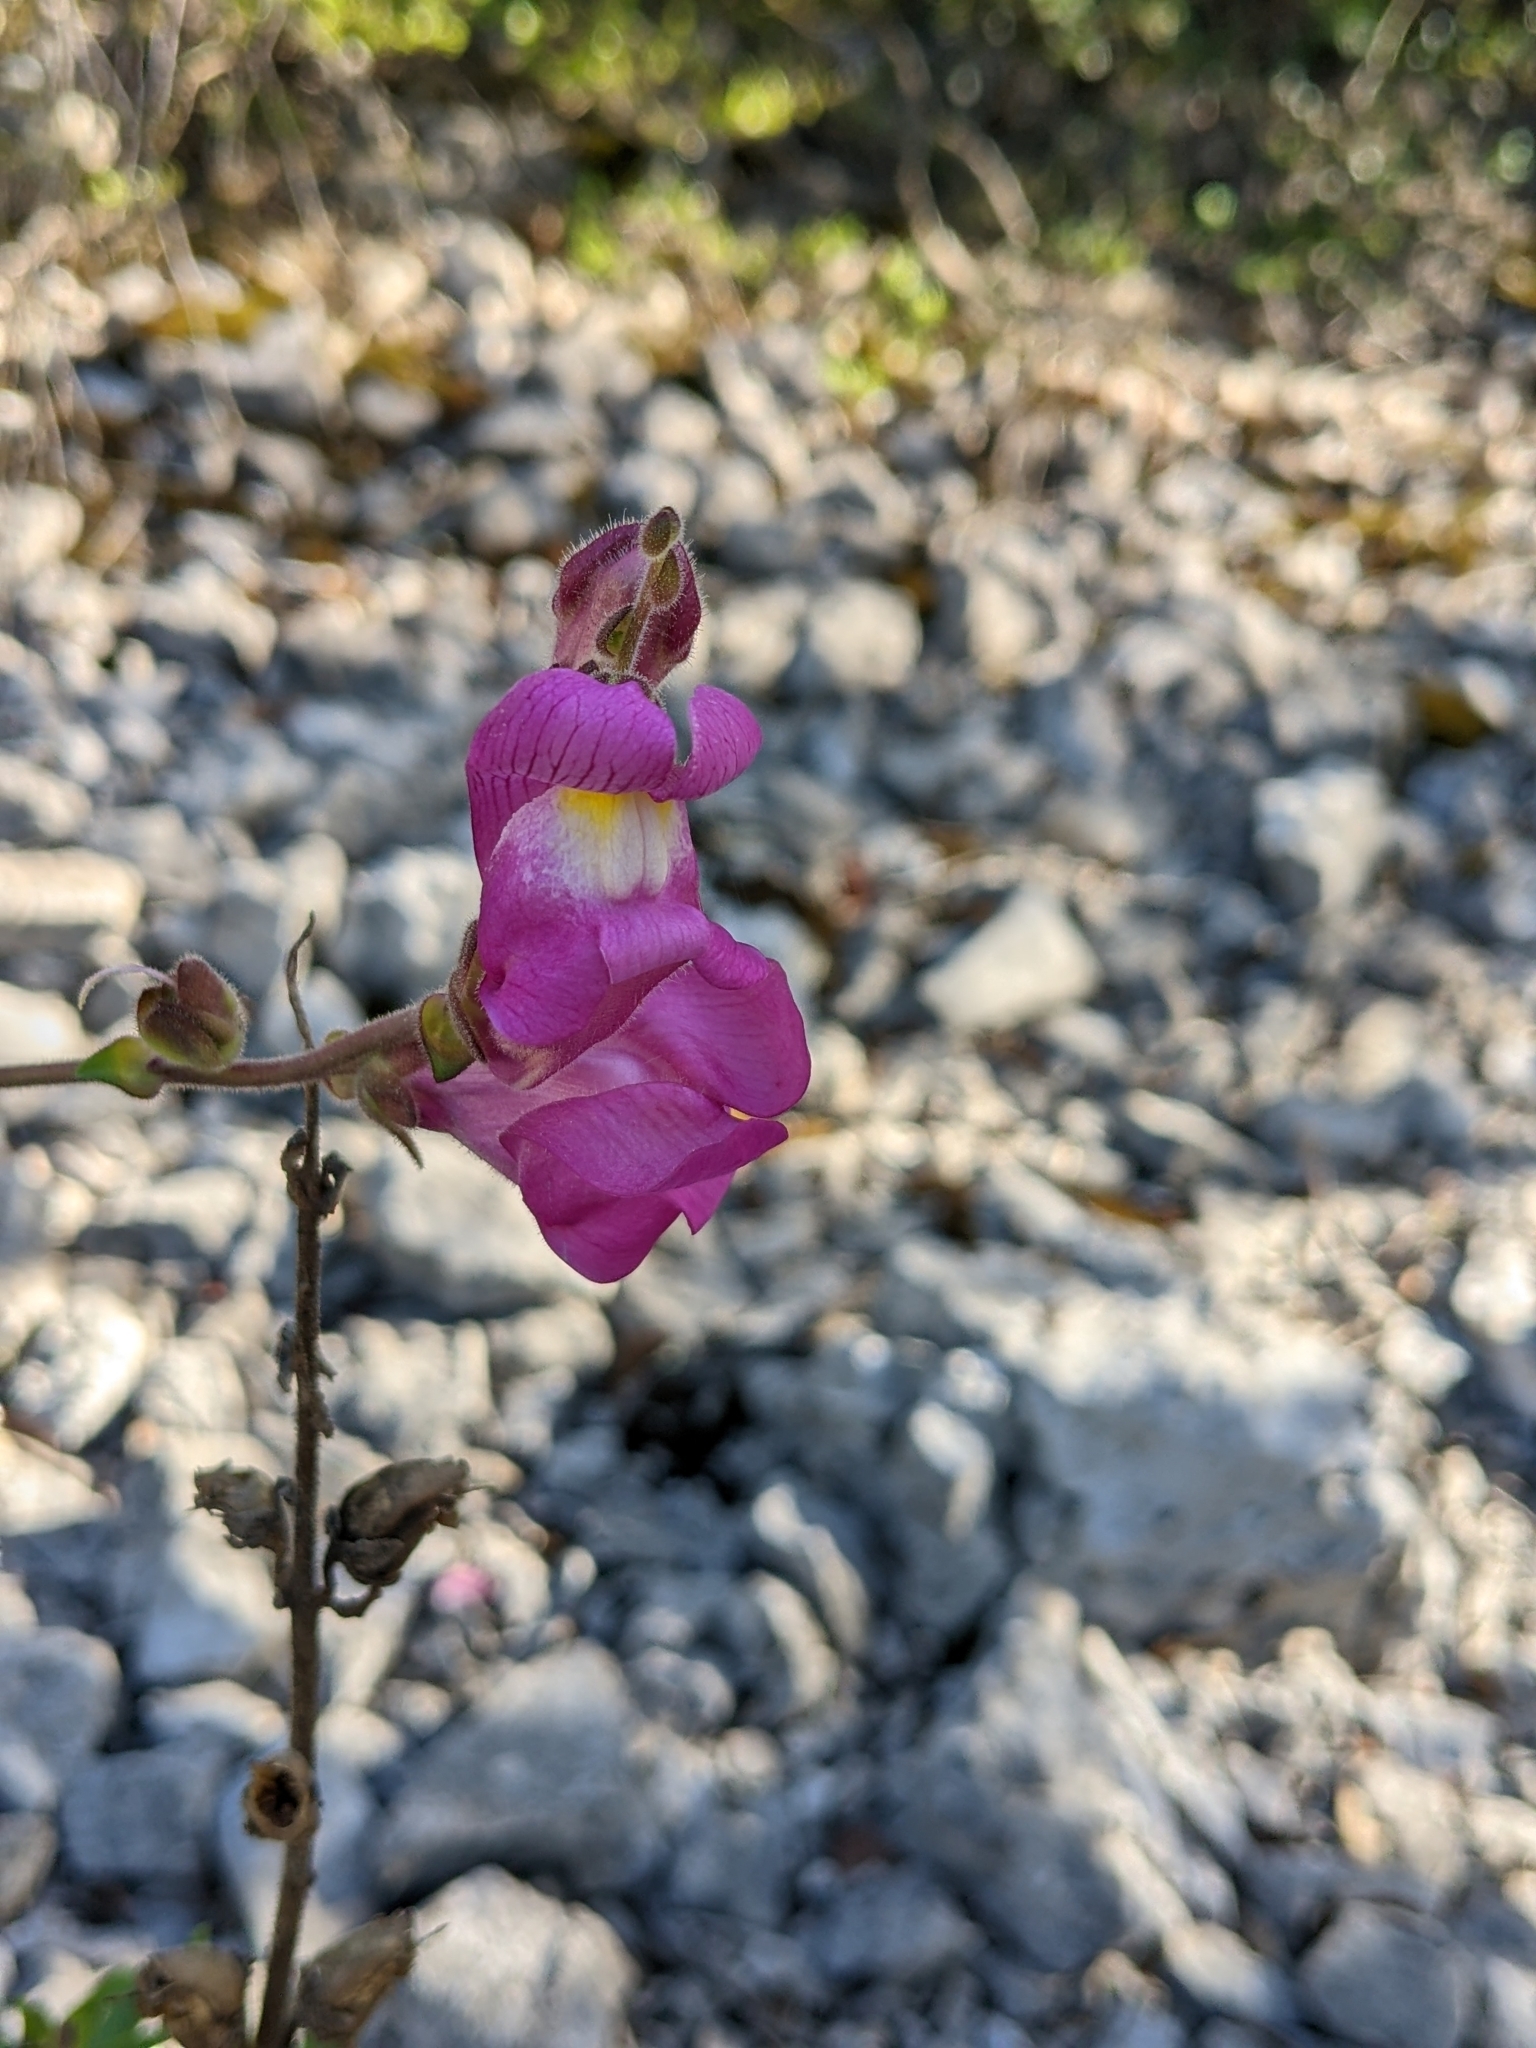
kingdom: Plantae
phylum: Tracheophyta
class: Magnoliopsida
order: Lamiales
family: Plantaginaceae
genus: Antirrhinum
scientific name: Antirrhinum majus
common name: Snapdragon
